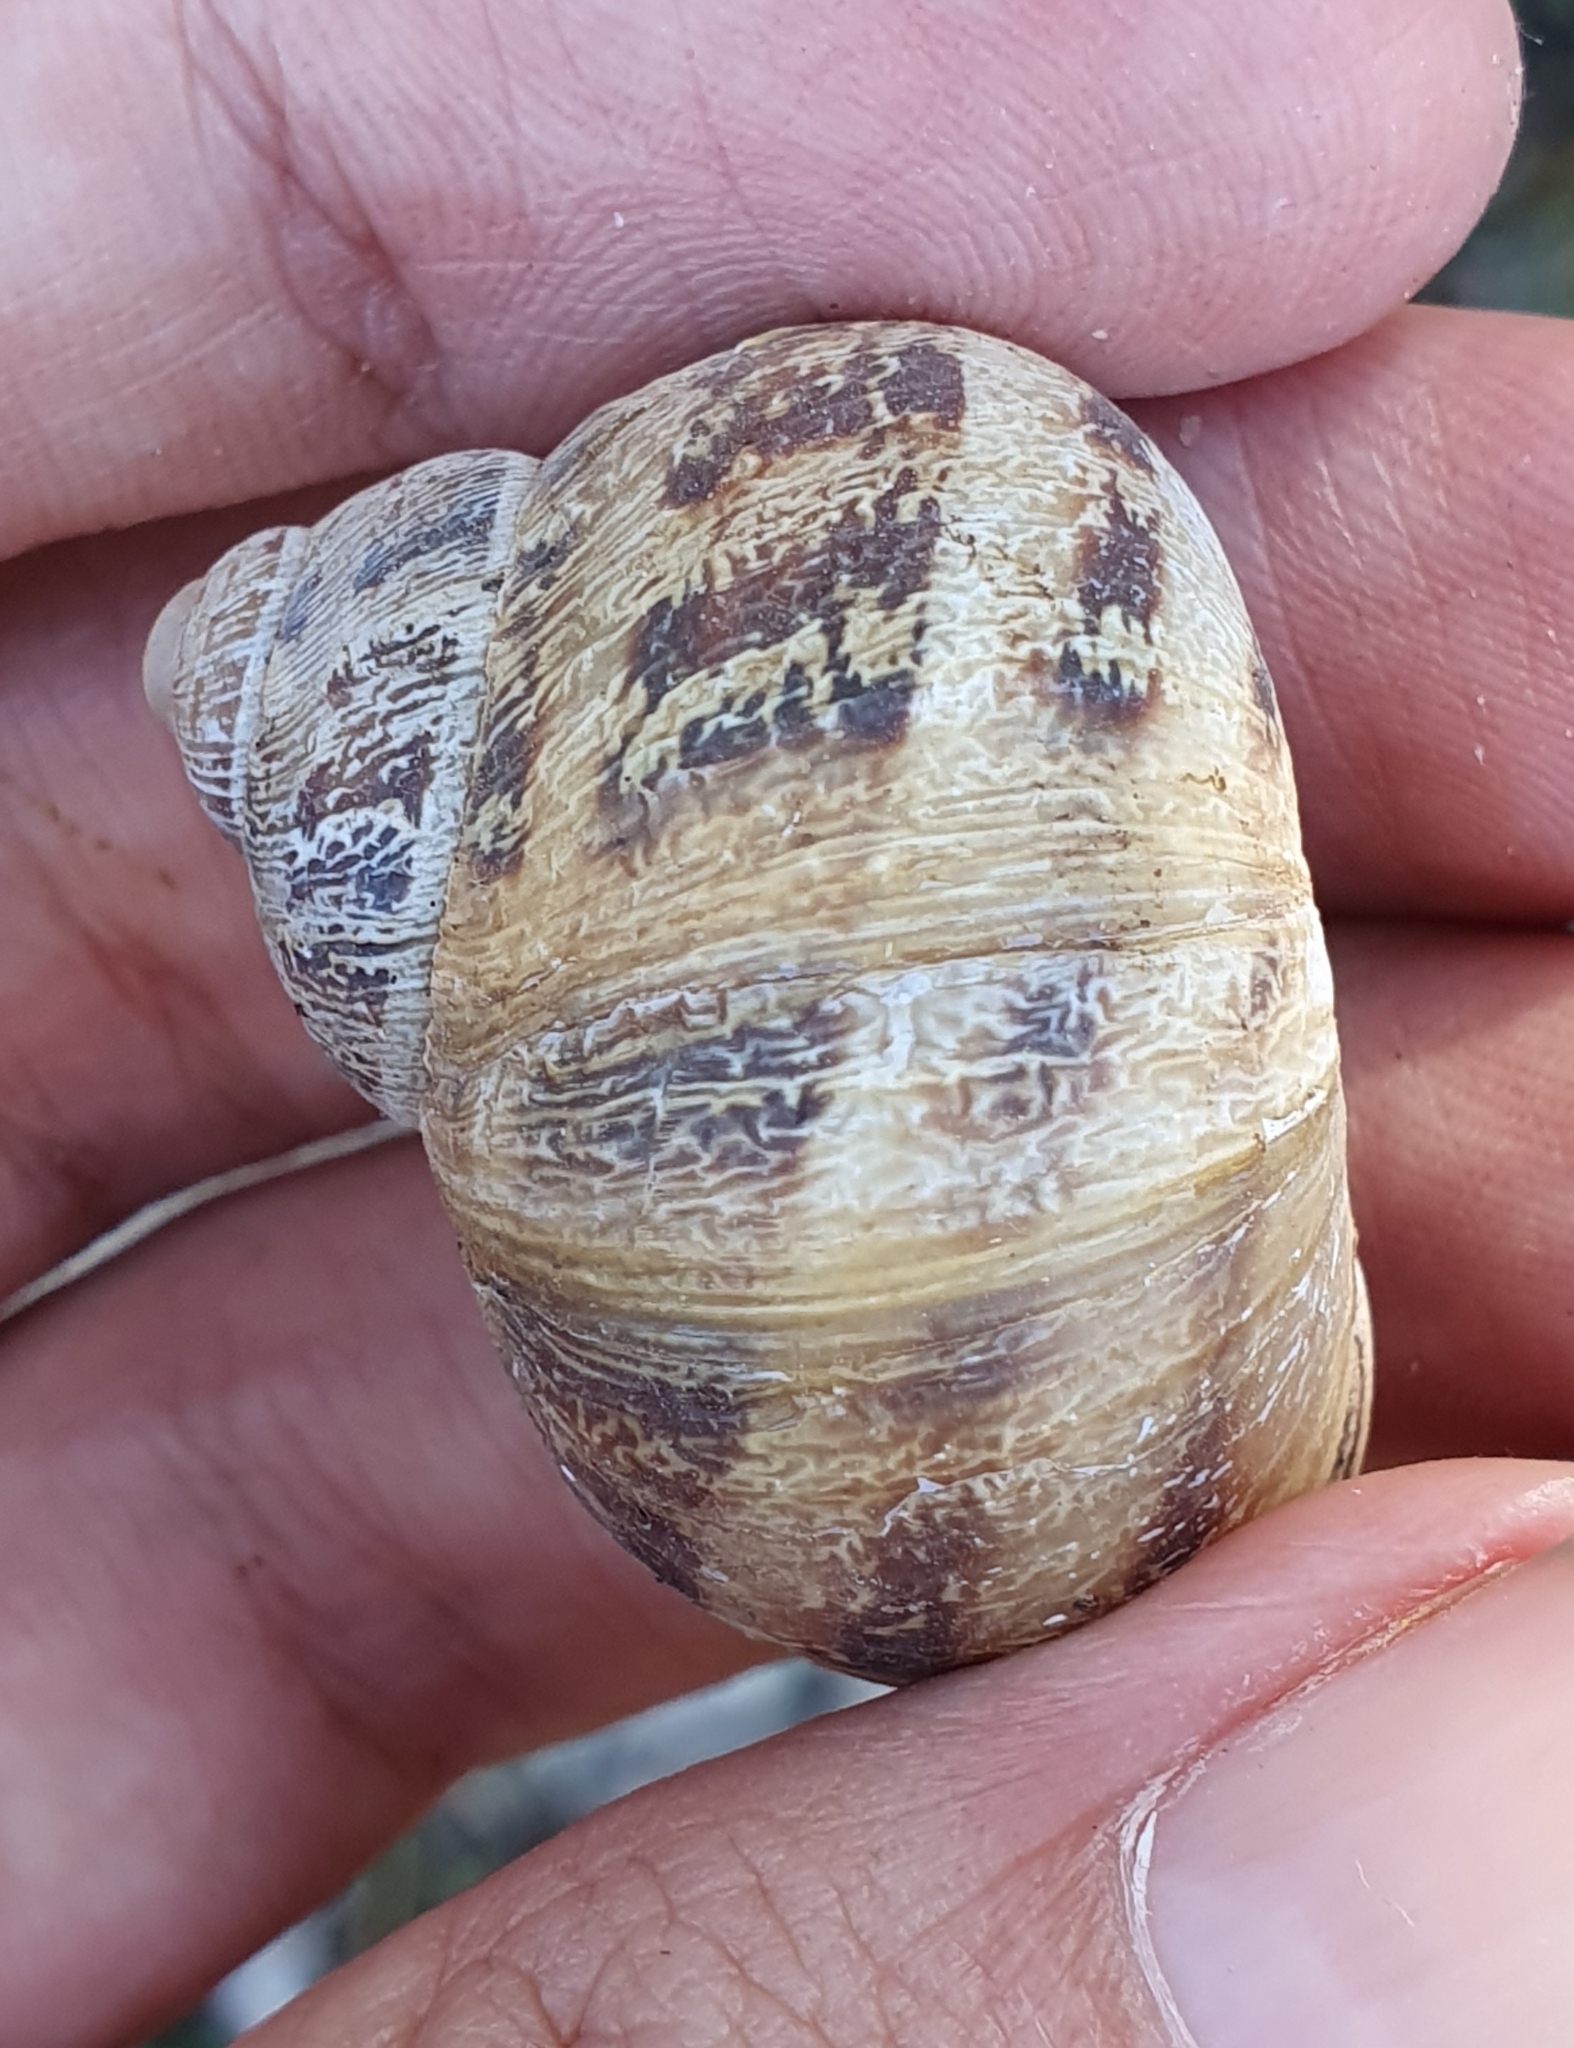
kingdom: Animalia
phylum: Mollusca
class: Gastropoda
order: Stylommatophora
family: Helicidae
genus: Cornu
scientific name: Cornu aspersum
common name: Brown garden snail
